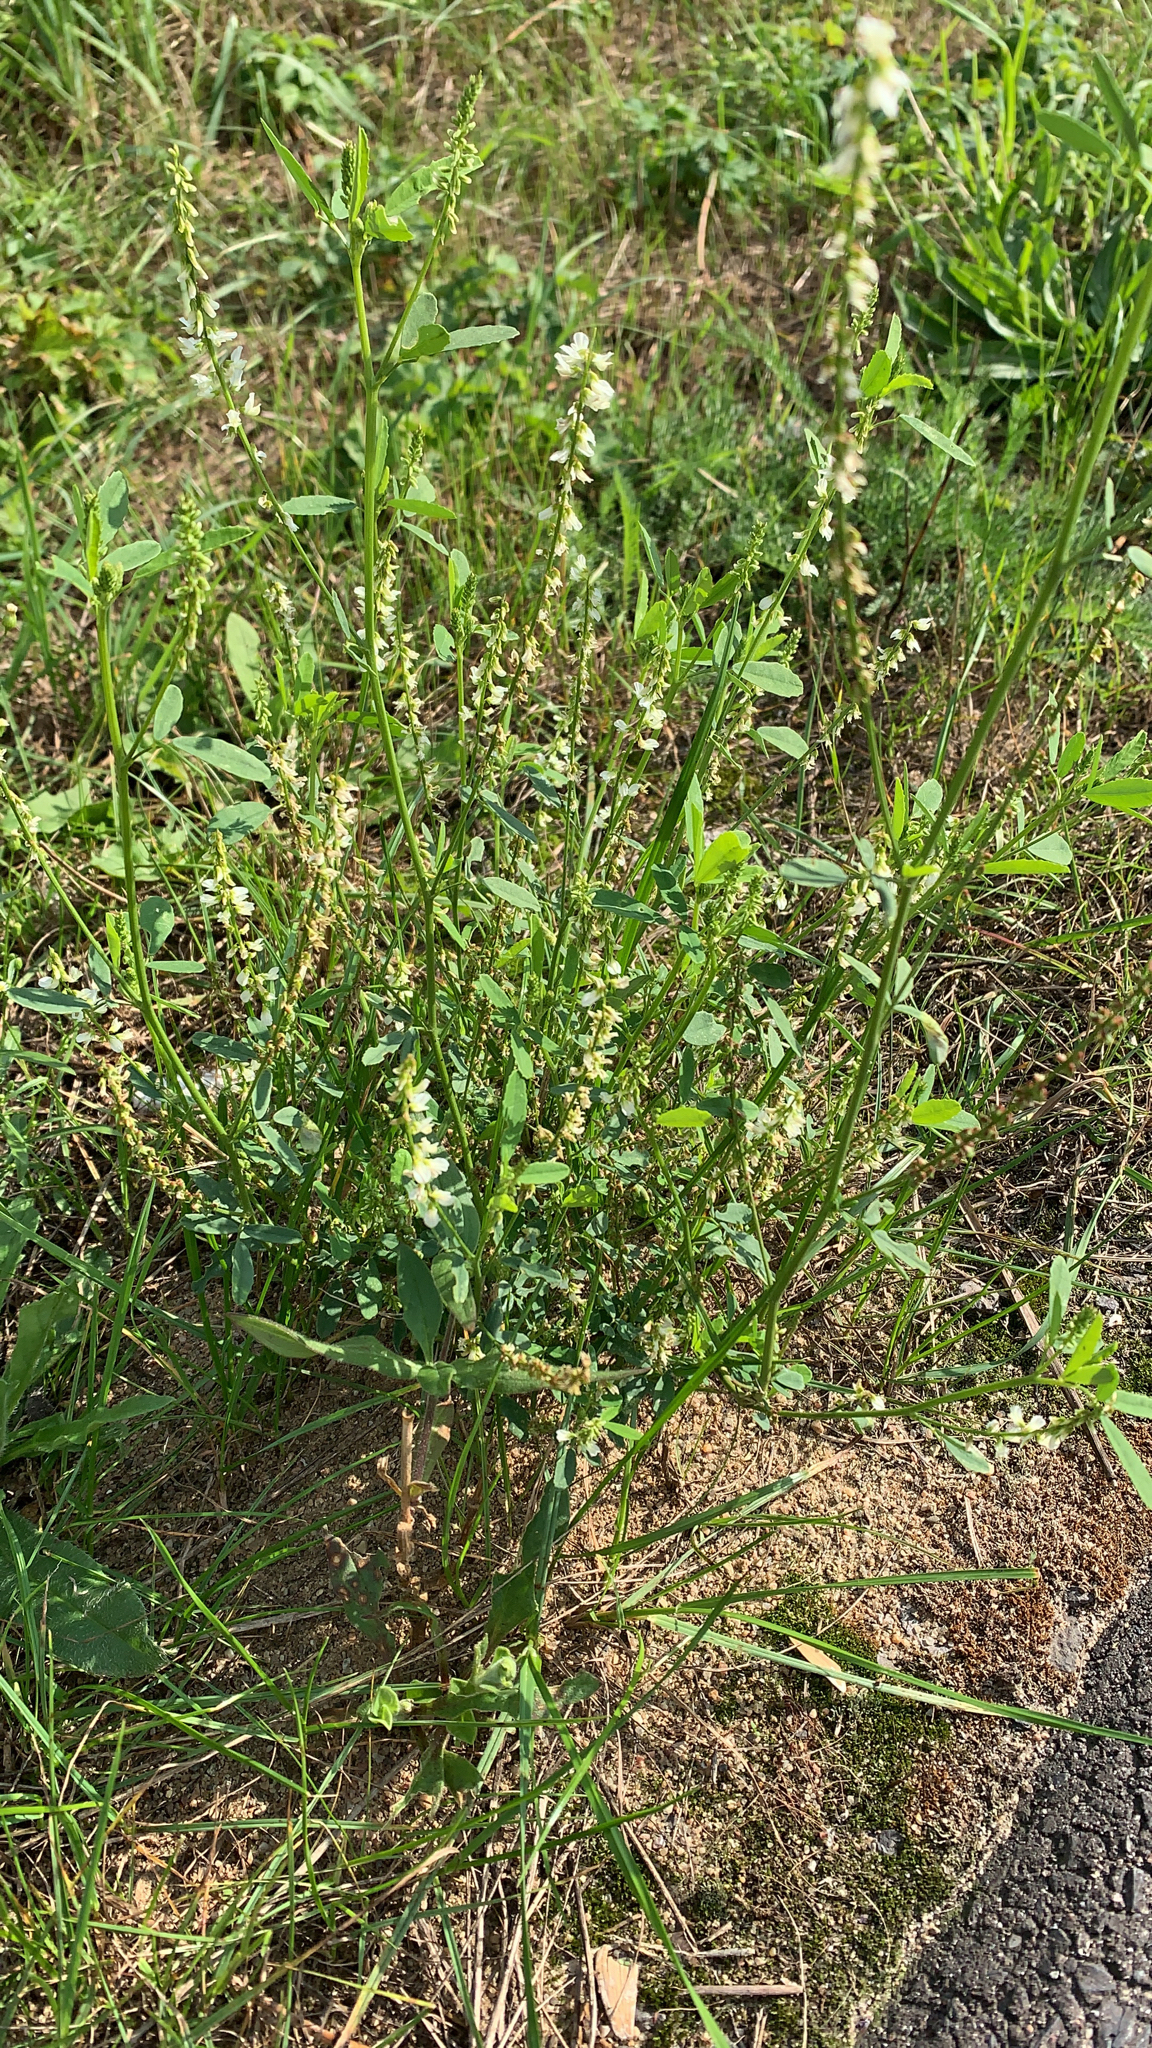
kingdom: Plantae
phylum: Tracheophyta
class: Magnoliopsida
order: Fabales
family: Fabaceae
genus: Melilotus
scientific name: Melilotus albus
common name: White melilot
